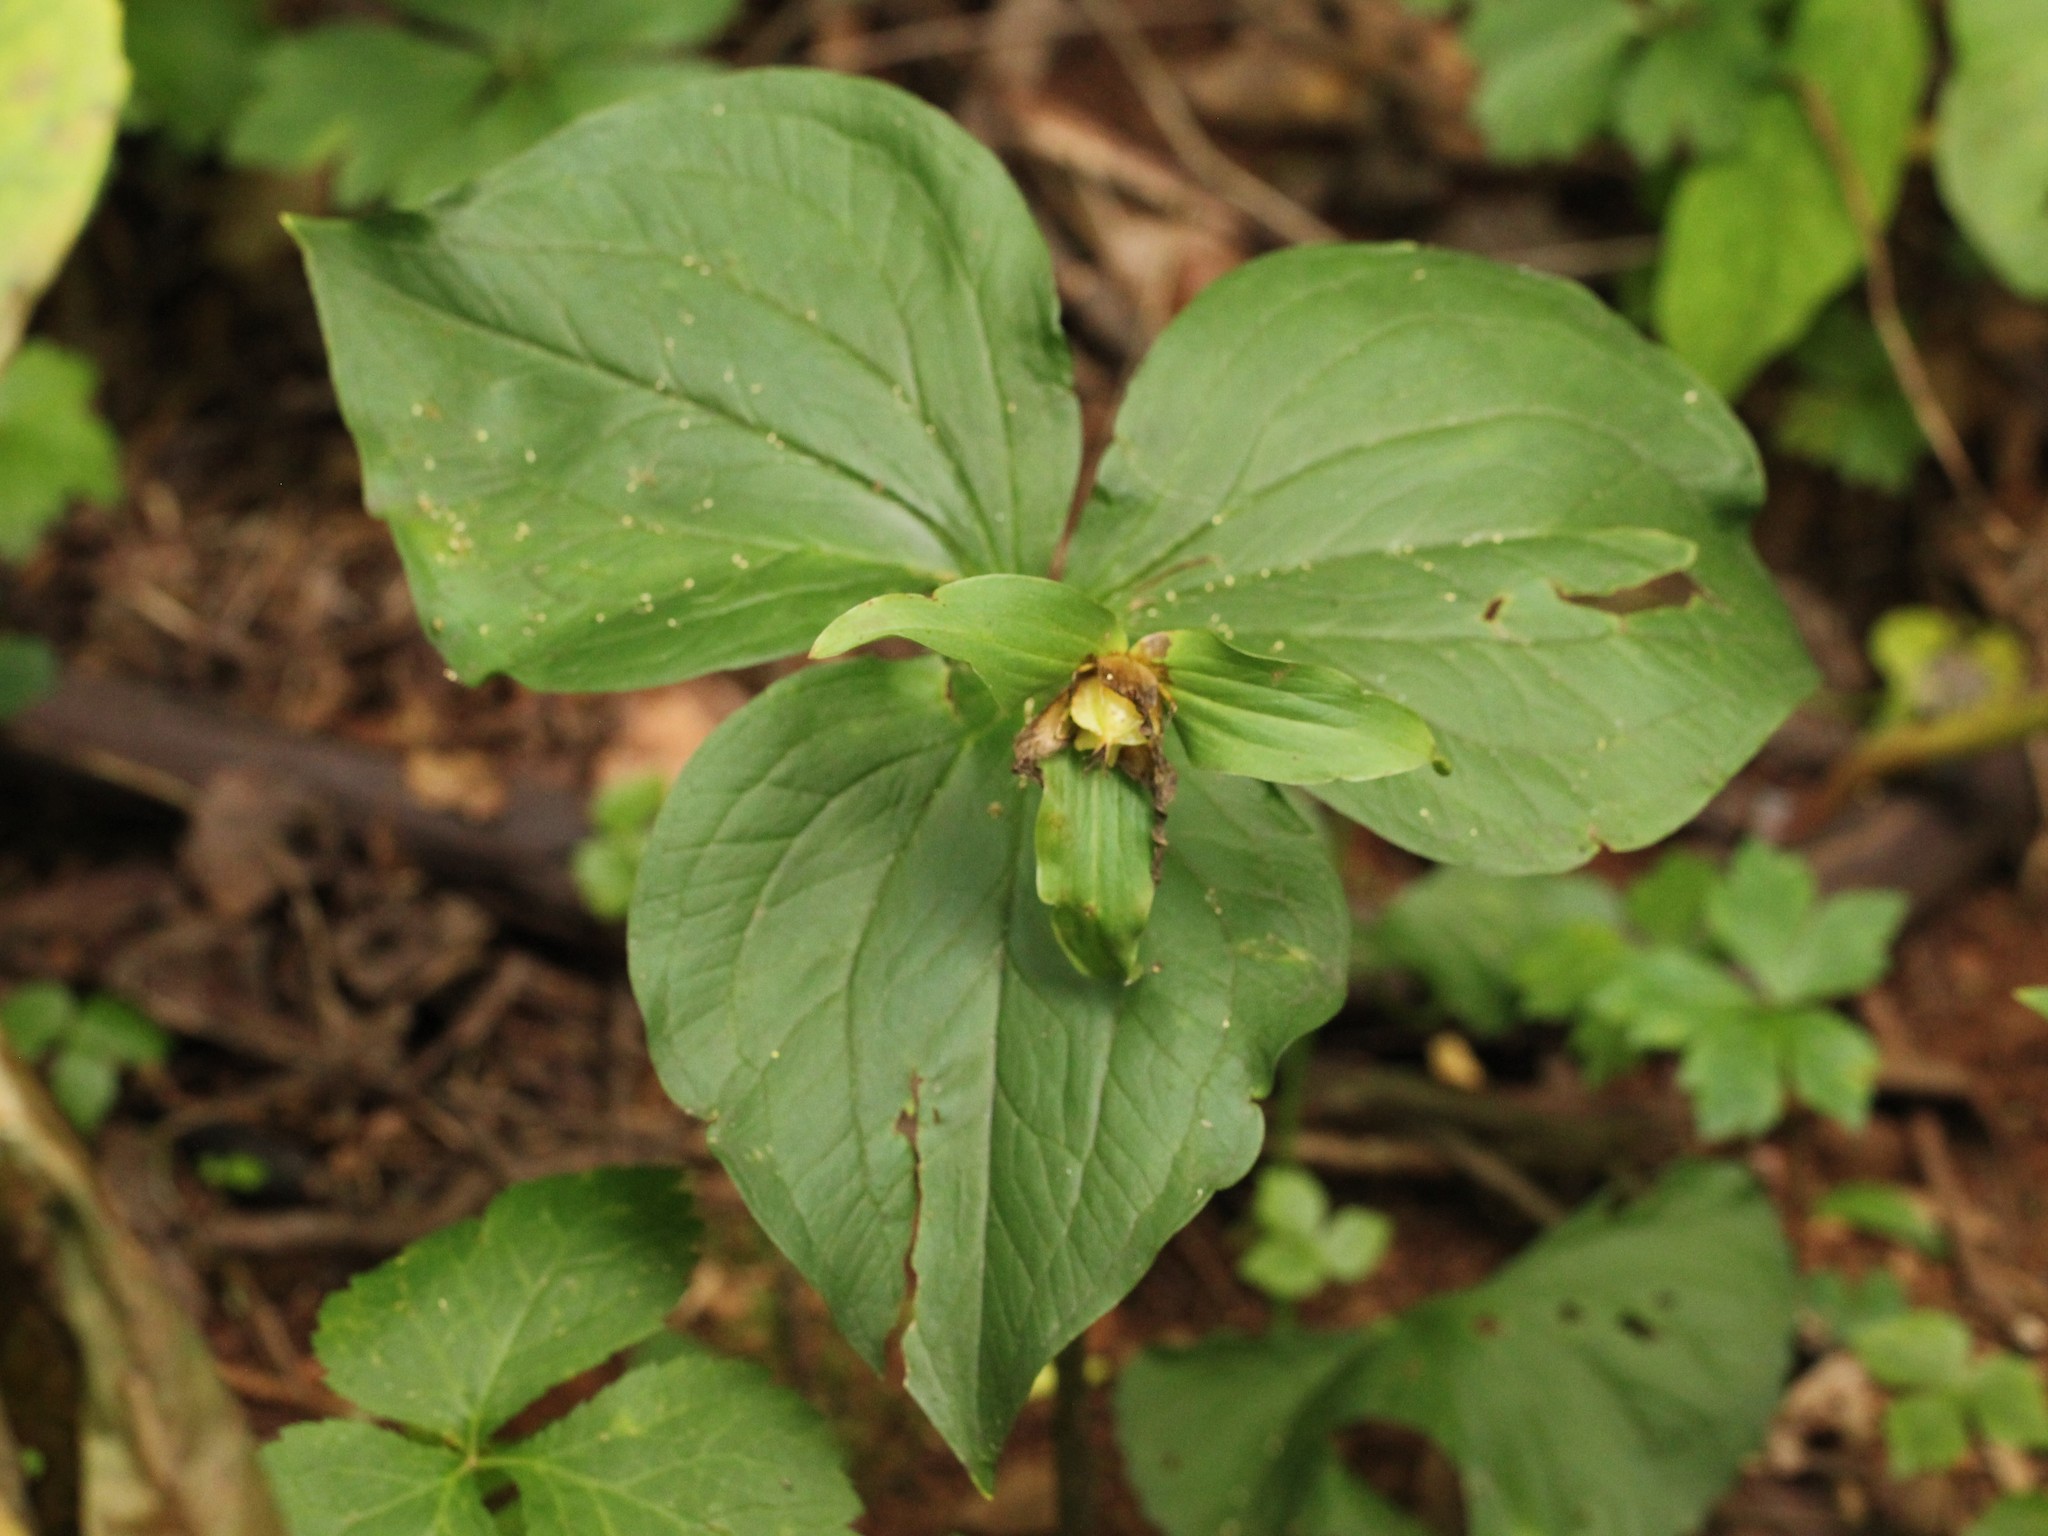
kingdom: Plantae
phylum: Tracheophyta
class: Liliopsida
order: Liliales
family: Melanthiaceae
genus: Trillium
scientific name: Trillium grandiflorum
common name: Great white trillium
